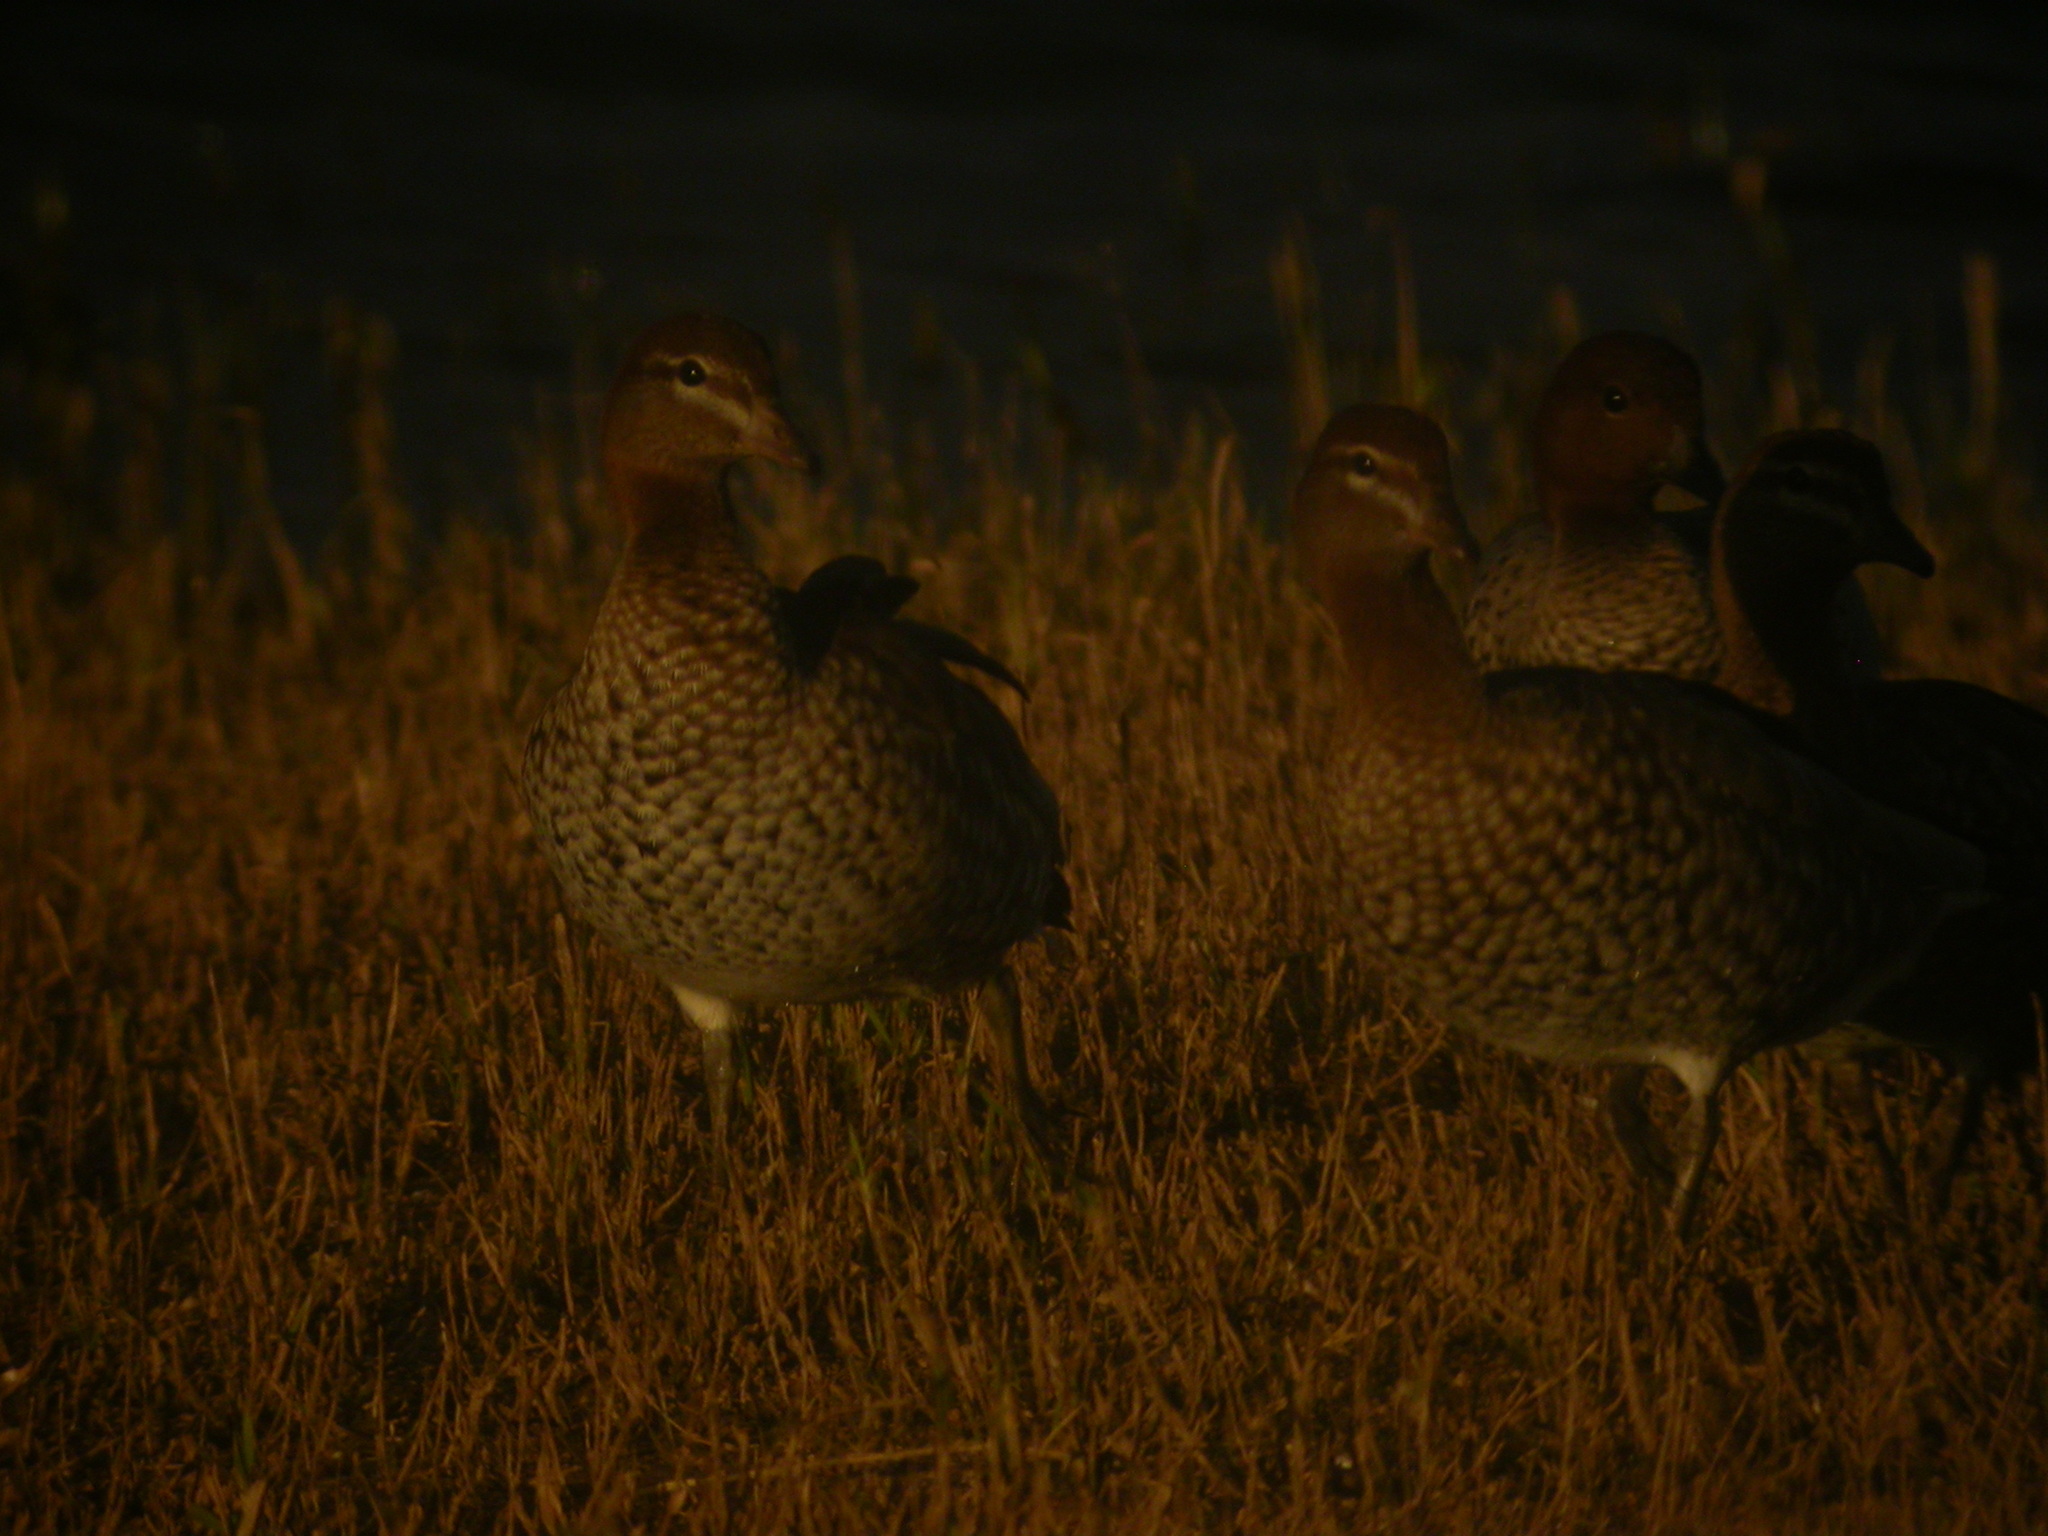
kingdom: Animalia
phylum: Chordata
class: Aves
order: Anseriformes
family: Anatidae
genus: Chenonetta
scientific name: Chenonetta jubata
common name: Maned duck
